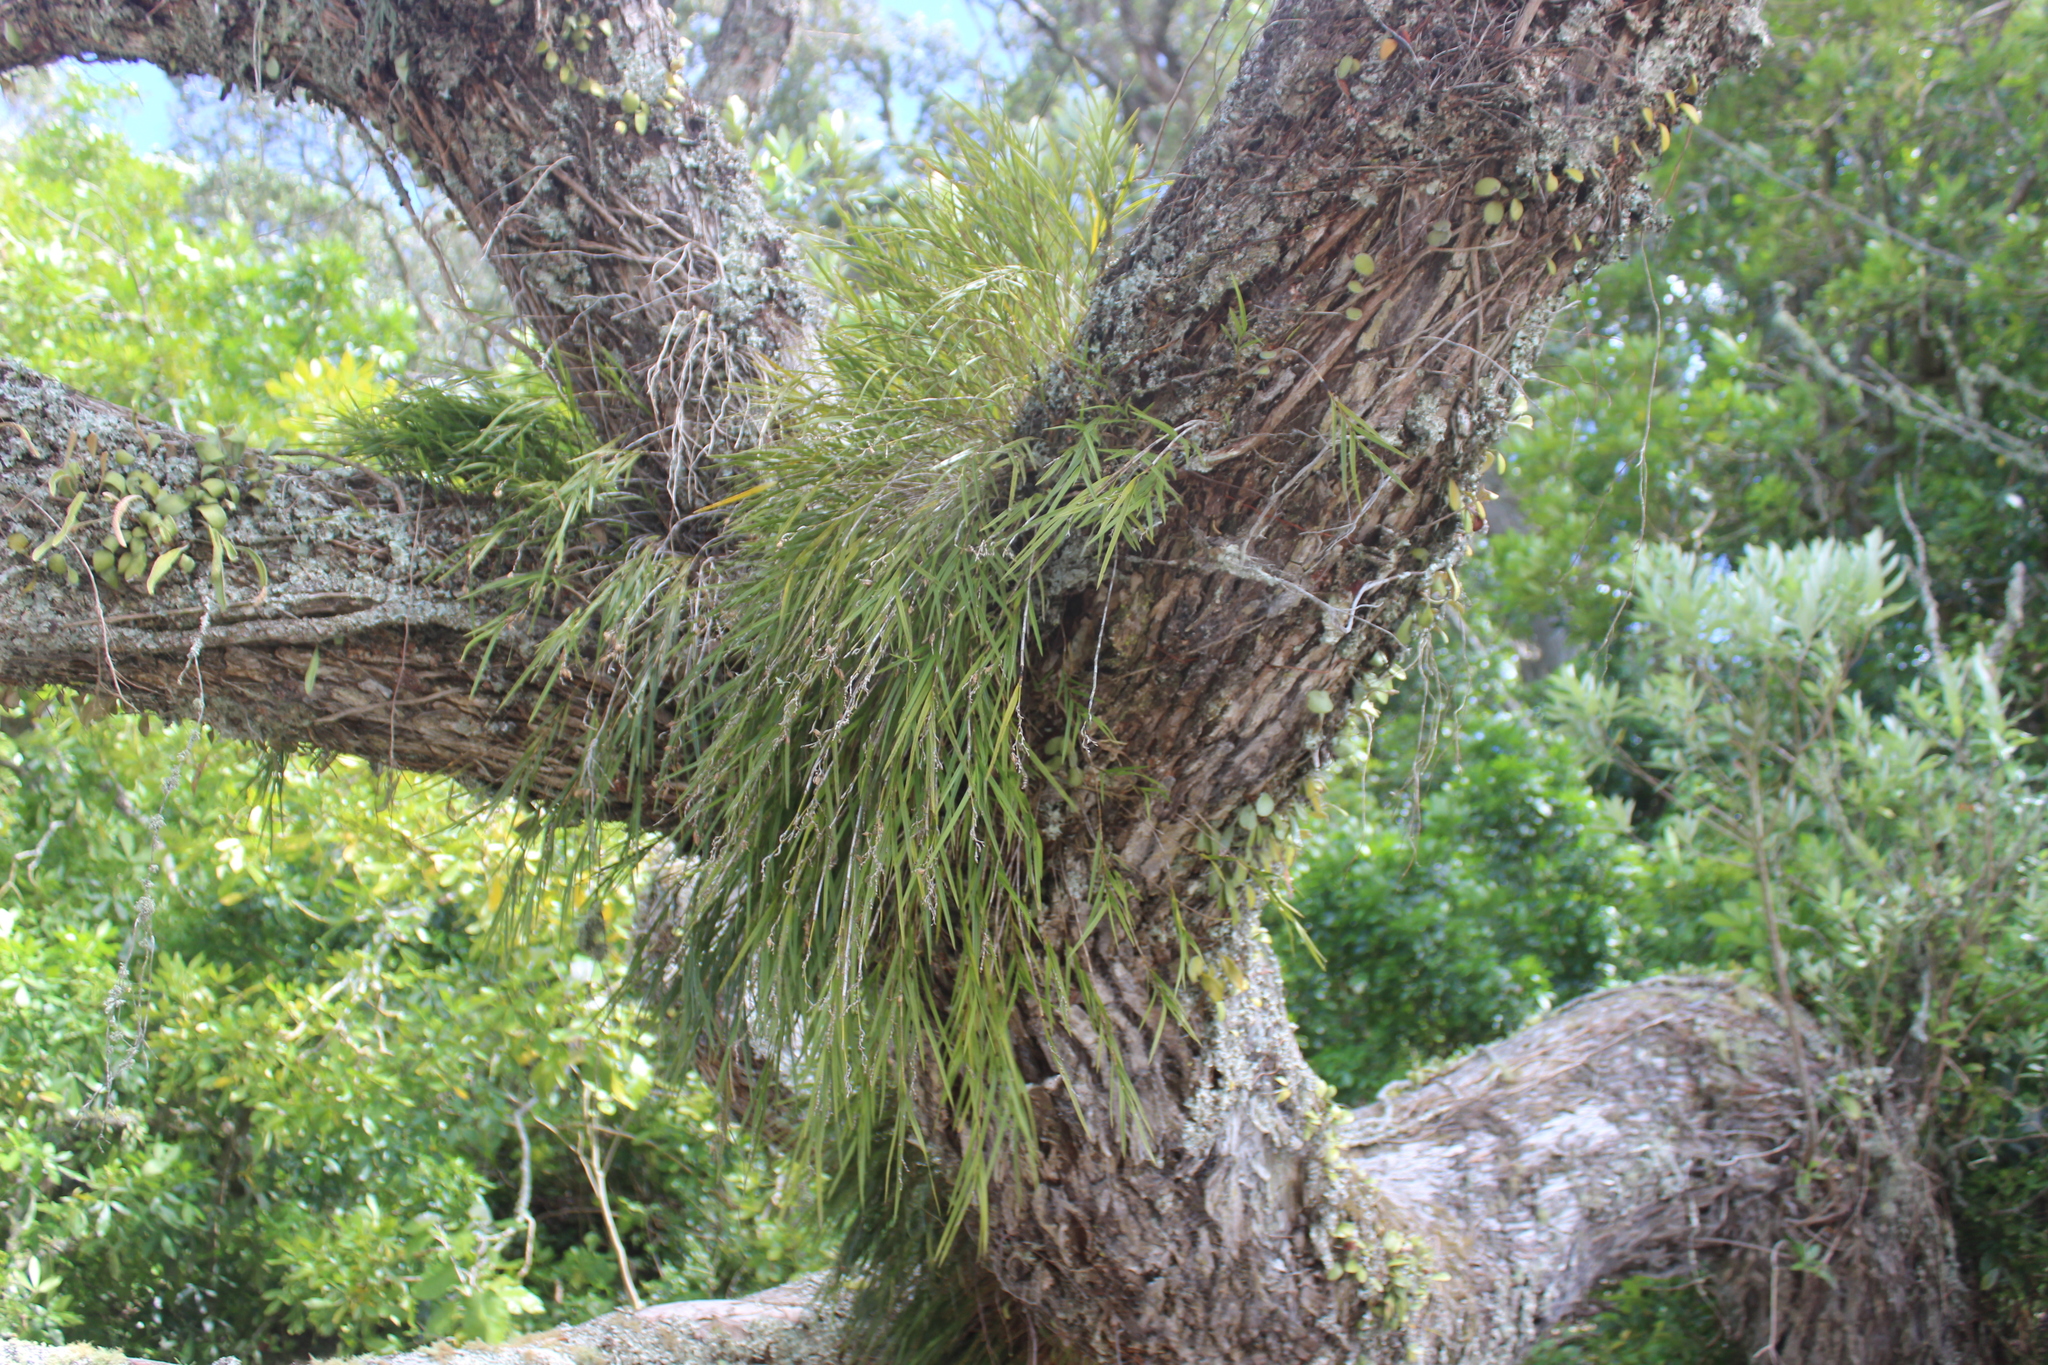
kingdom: Plantae
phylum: Tracheophyta
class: Liliopsida
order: Asparagales
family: Orchidaceae
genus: Earina
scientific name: Earina mucronata
